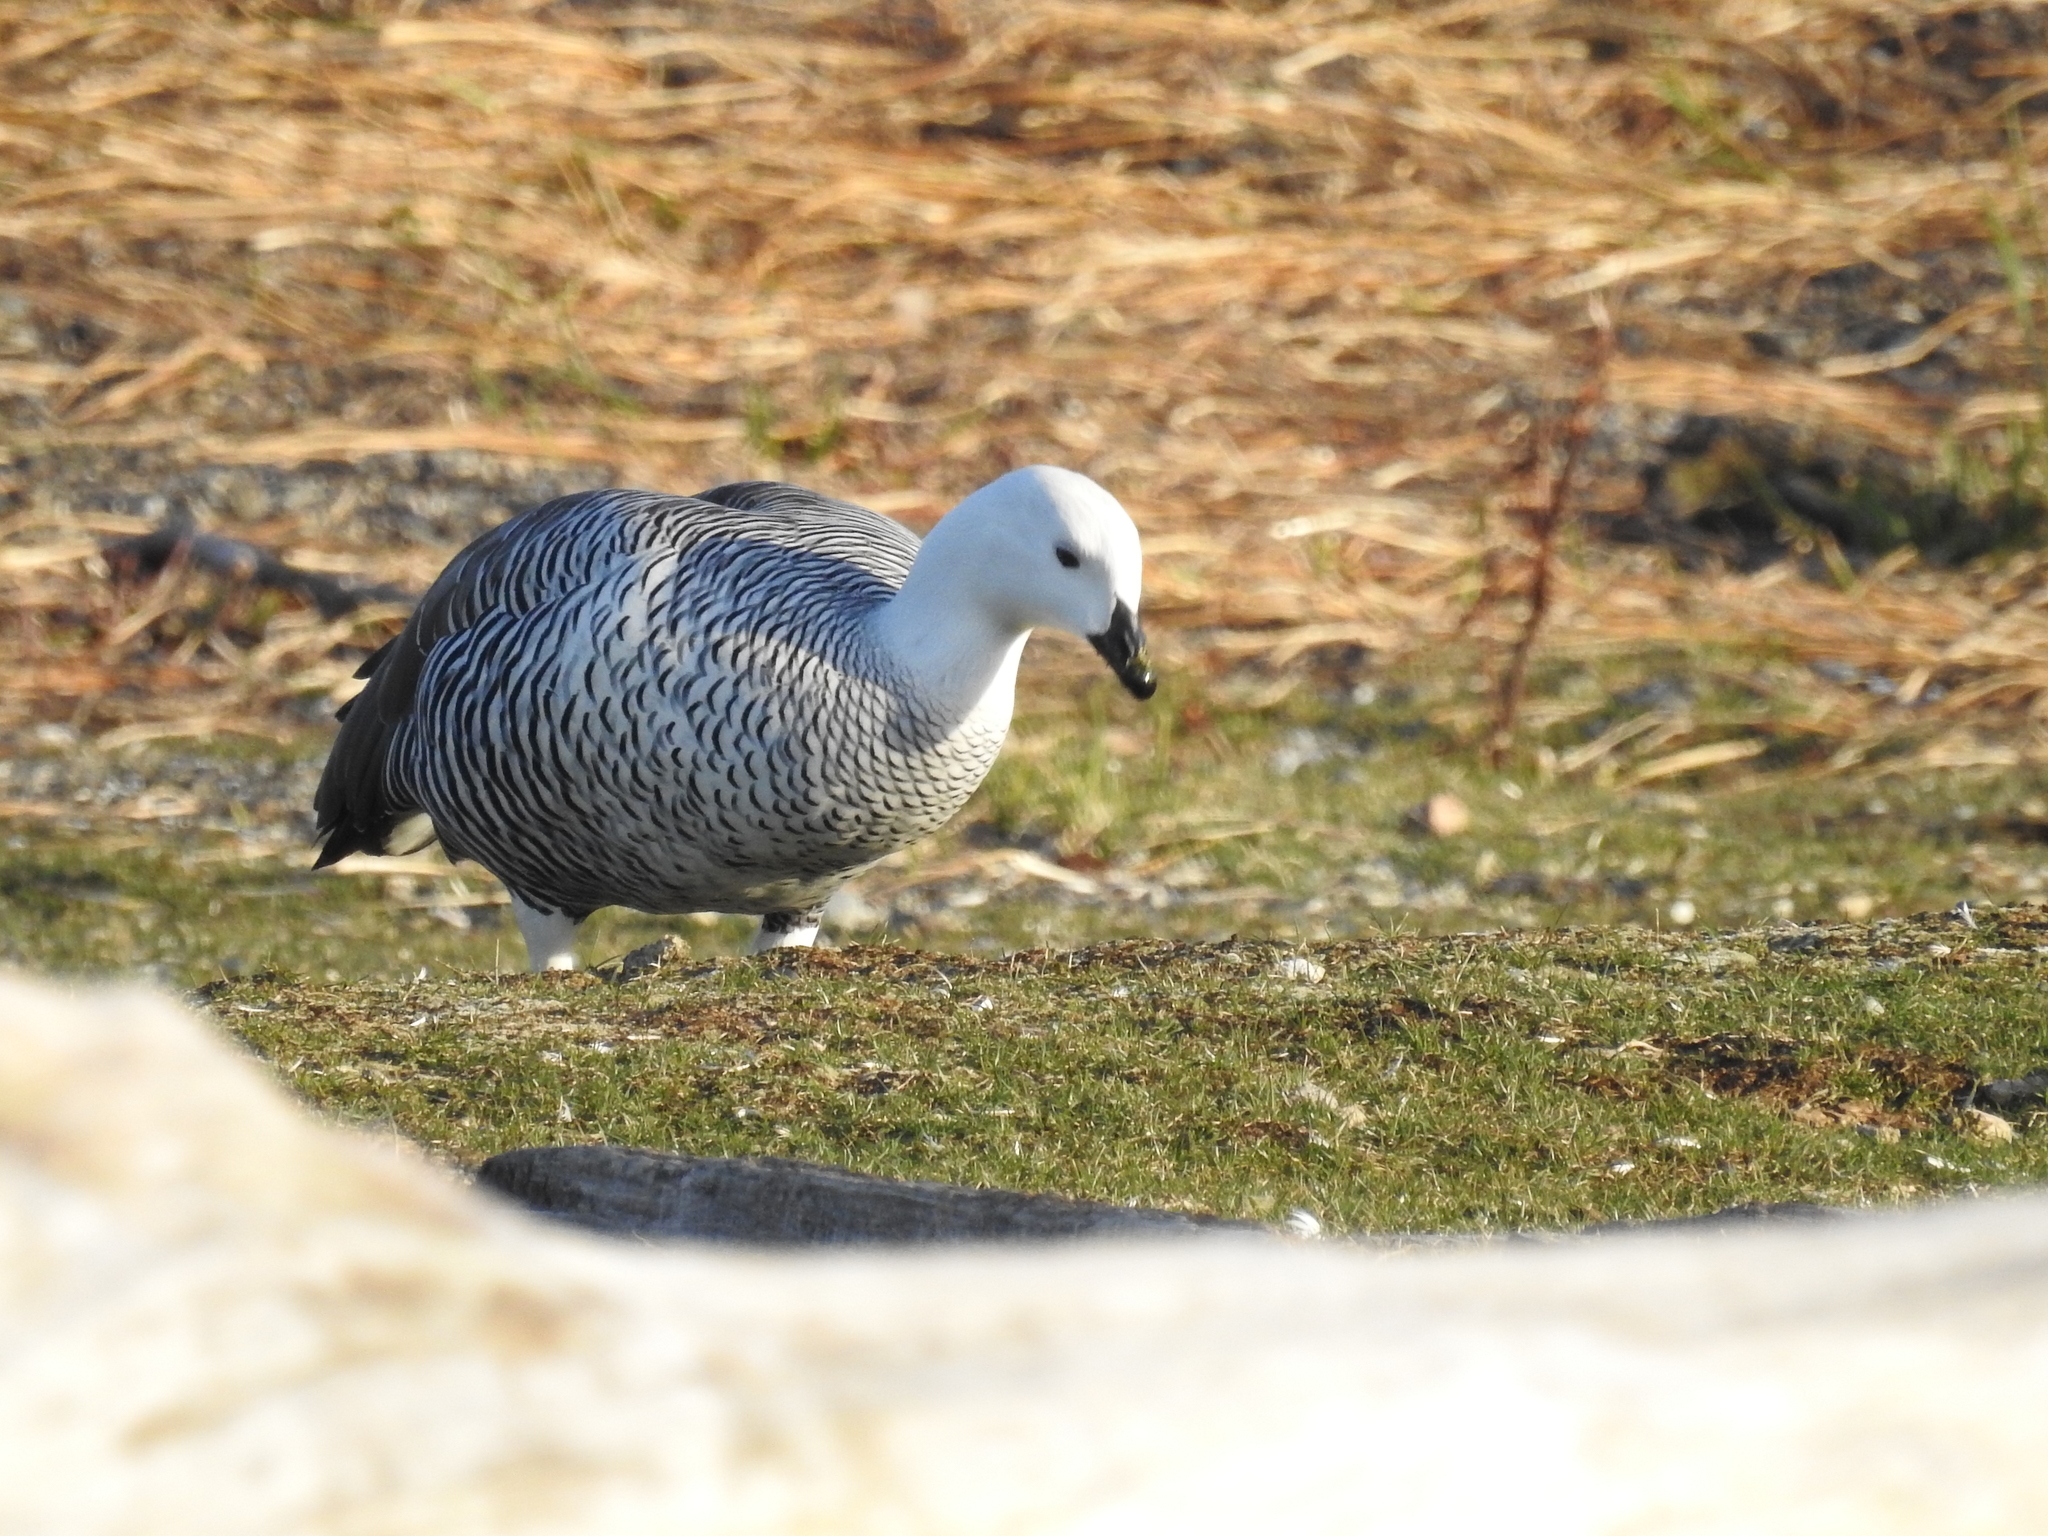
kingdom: Animalia
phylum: Chordata
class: Aves
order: Anseriformes
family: Anatidae
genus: Chloephaga
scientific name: Chloephaga picta
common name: Upland goose
